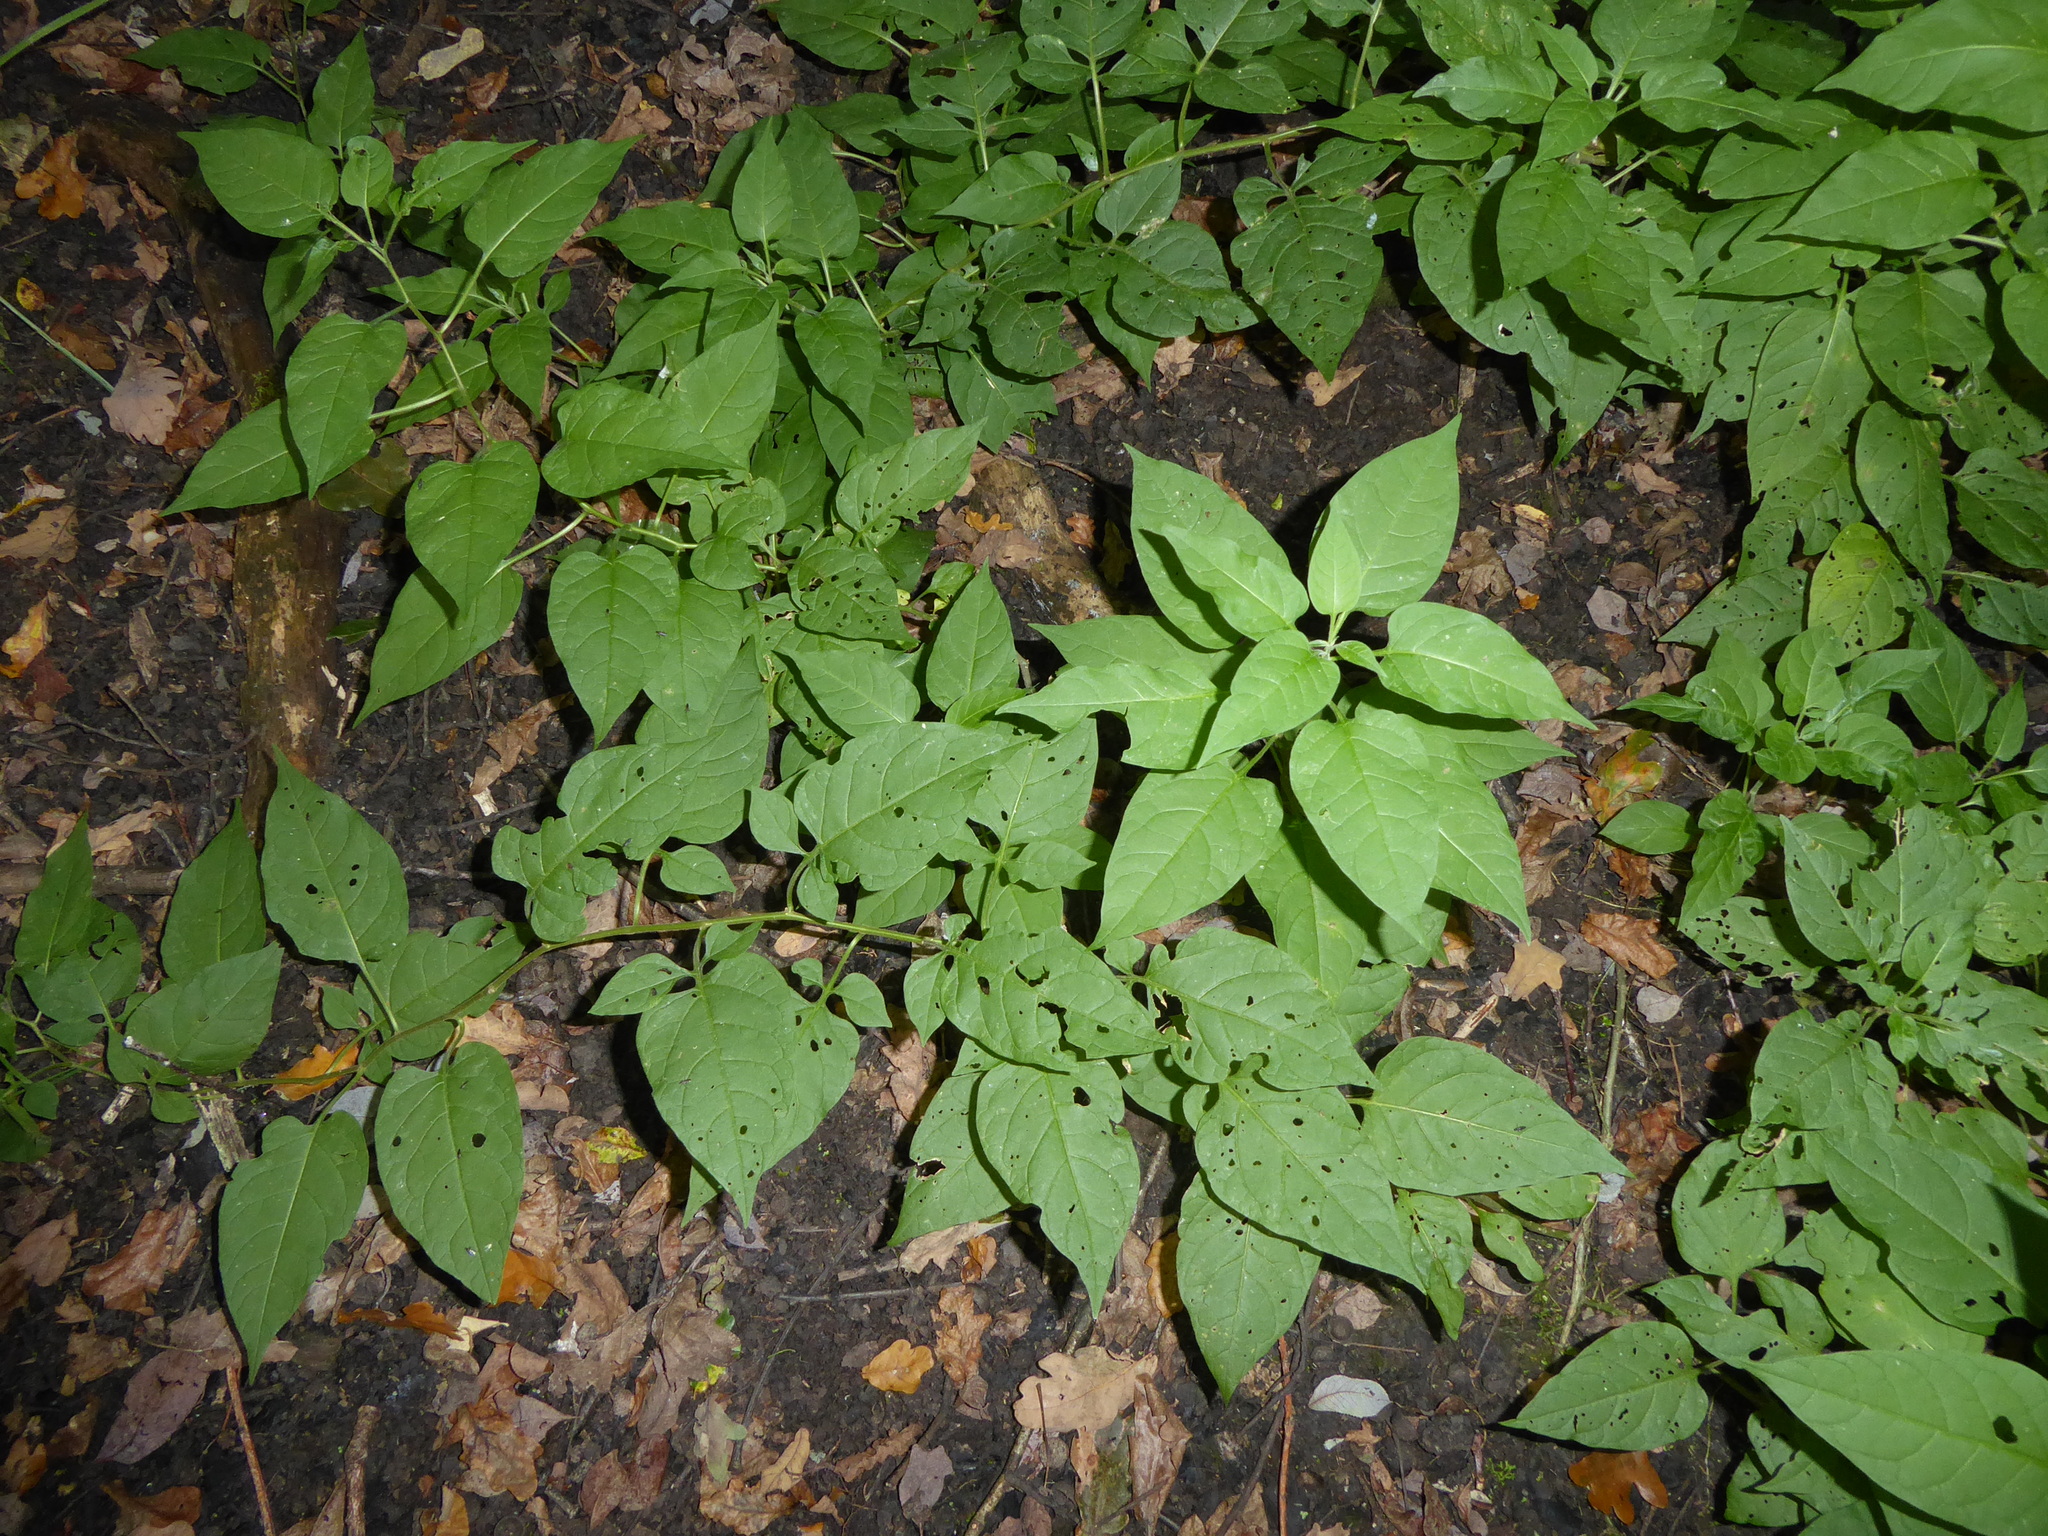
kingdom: Plantae
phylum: Tracheophyta
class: Magnoliopsida
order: Solanales
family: Solanaceae
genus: Solanum
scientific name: Solanum dulcamara
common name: Climbing nightshade
